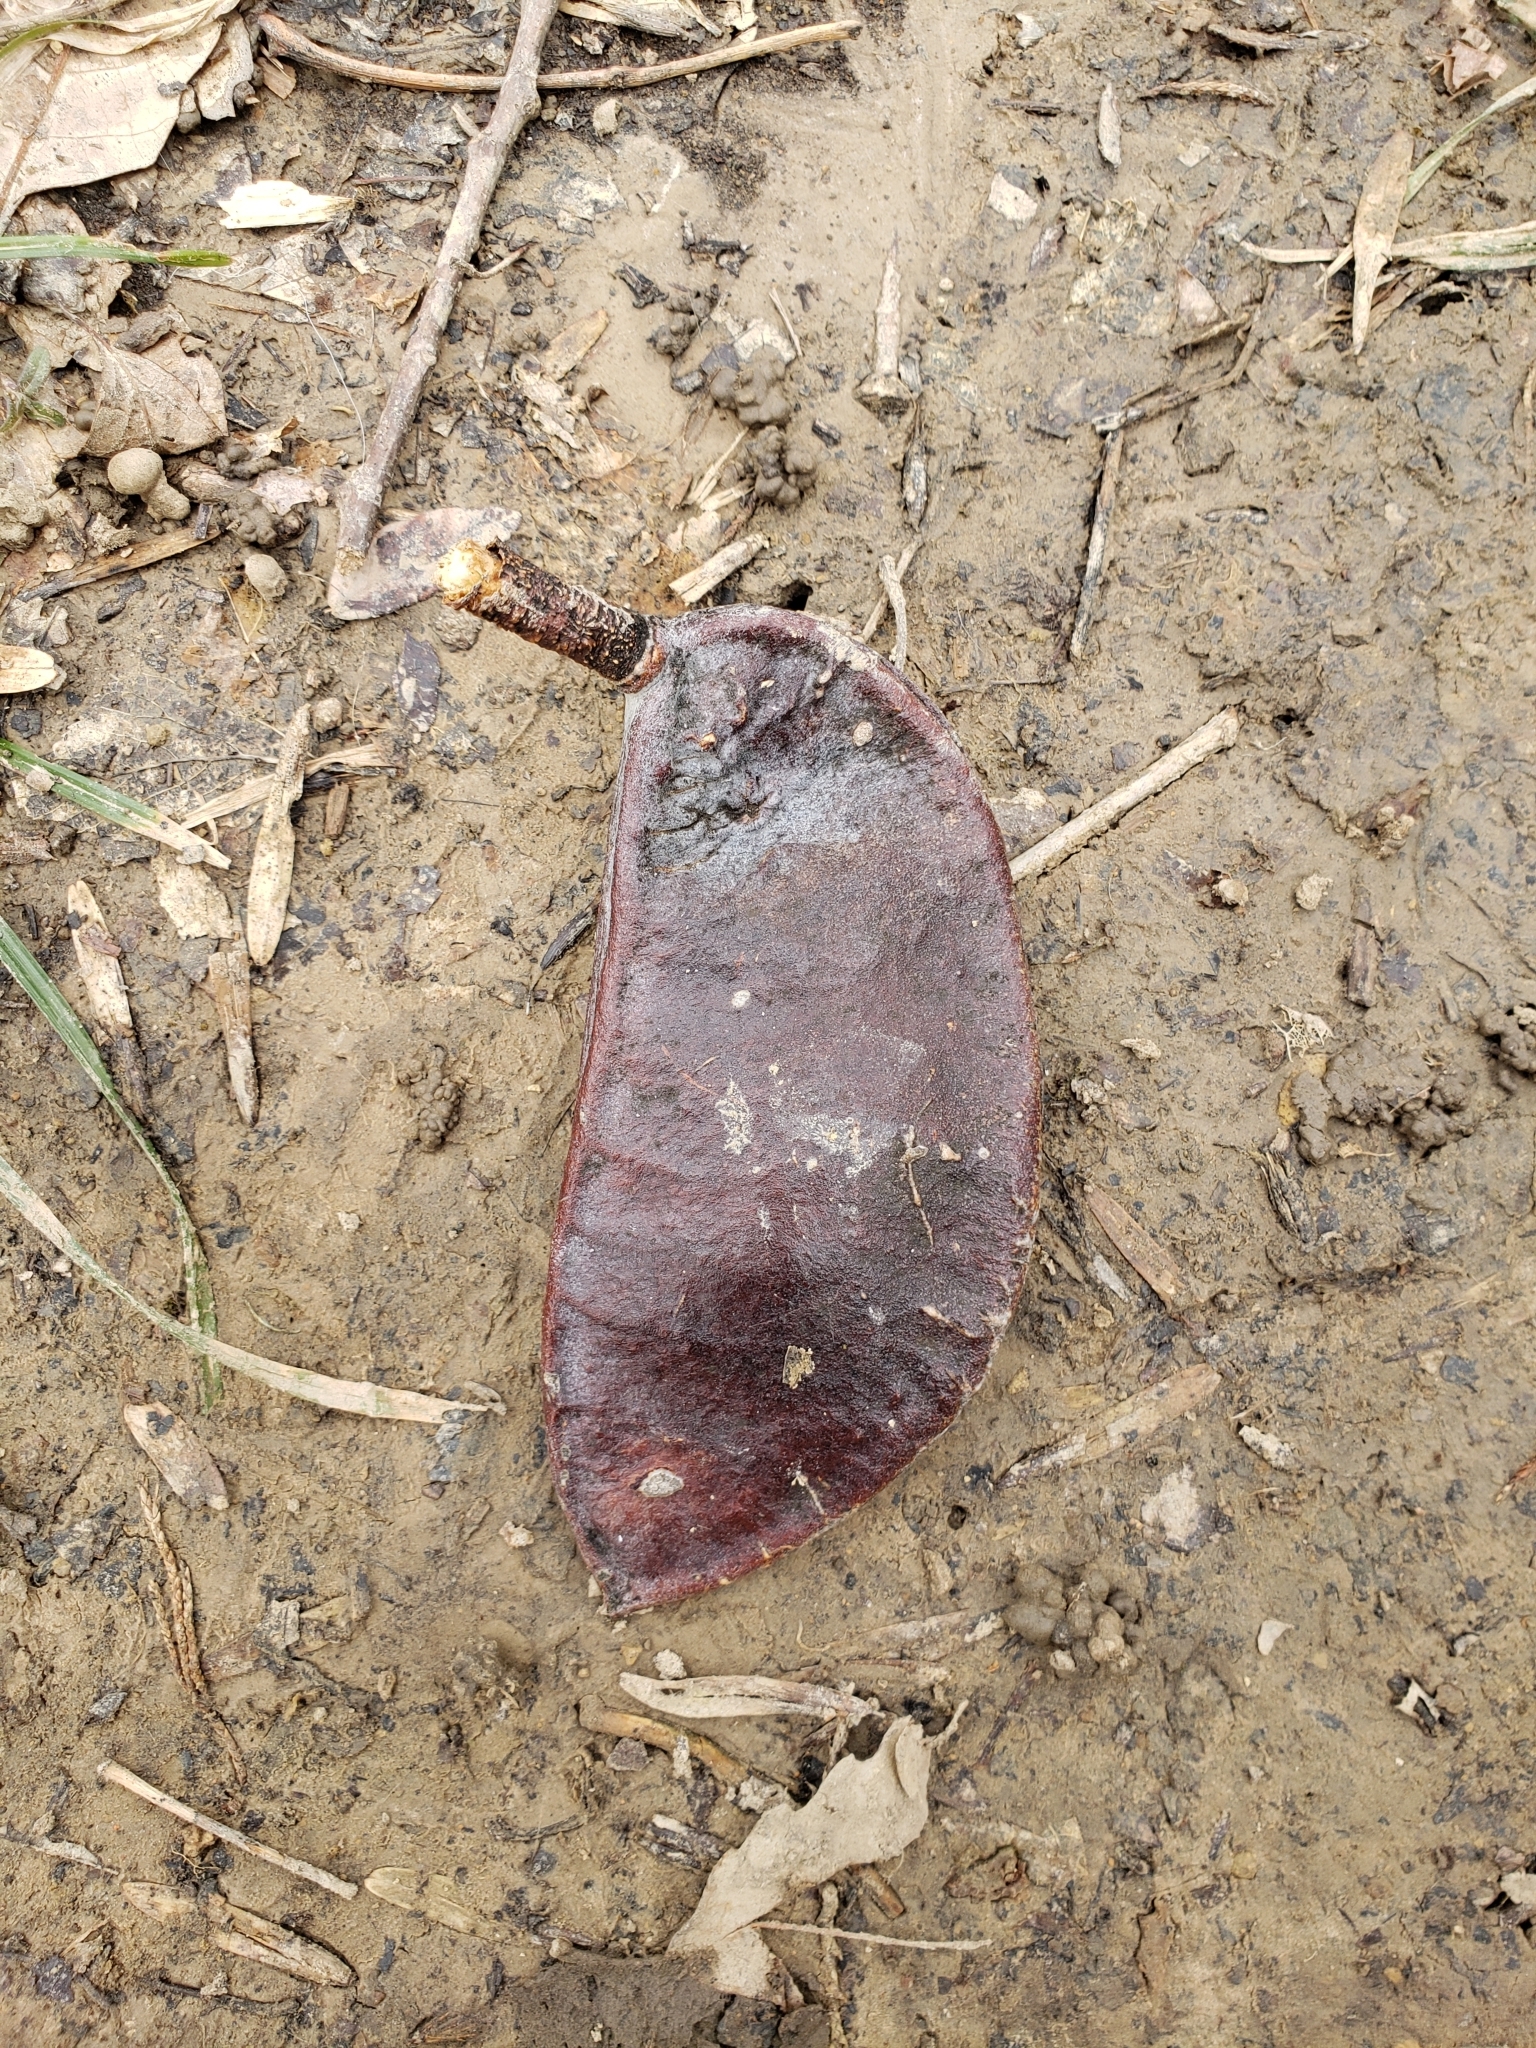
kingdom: Plantae
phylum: Tracheophyta
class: Magnoliopsida
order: Fabales
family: Fabaceae
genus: Gymnocladus
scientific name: Gymnocladus dioicus
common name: Kentucky coffee-tree
